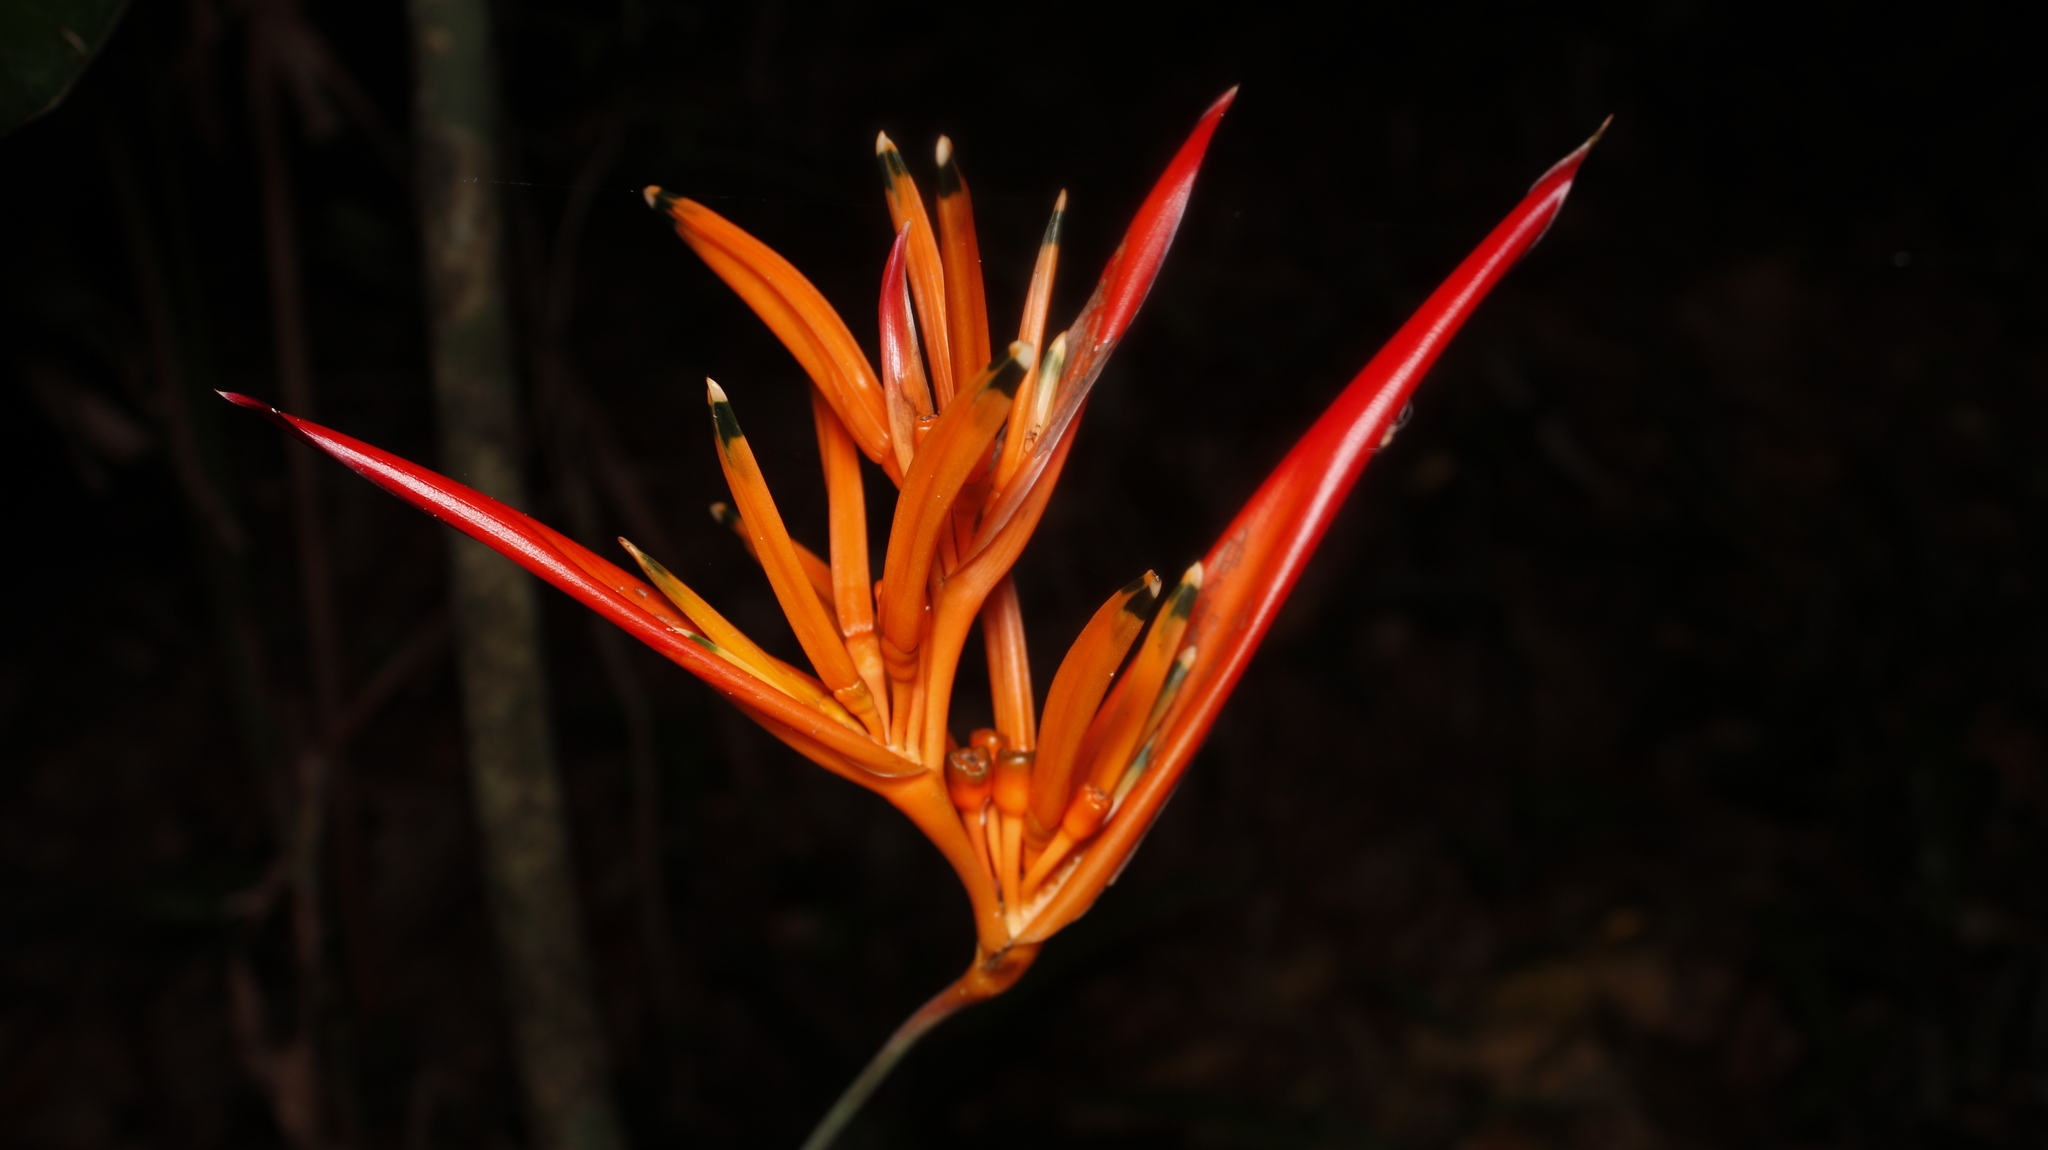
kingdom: Plantae
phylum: Tracheophyta
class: Liliopsida
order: Zingiberales
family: Heliconiaceae
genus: Heliconia
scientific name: Heliconia psittacorum
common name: Parrot's-flower
